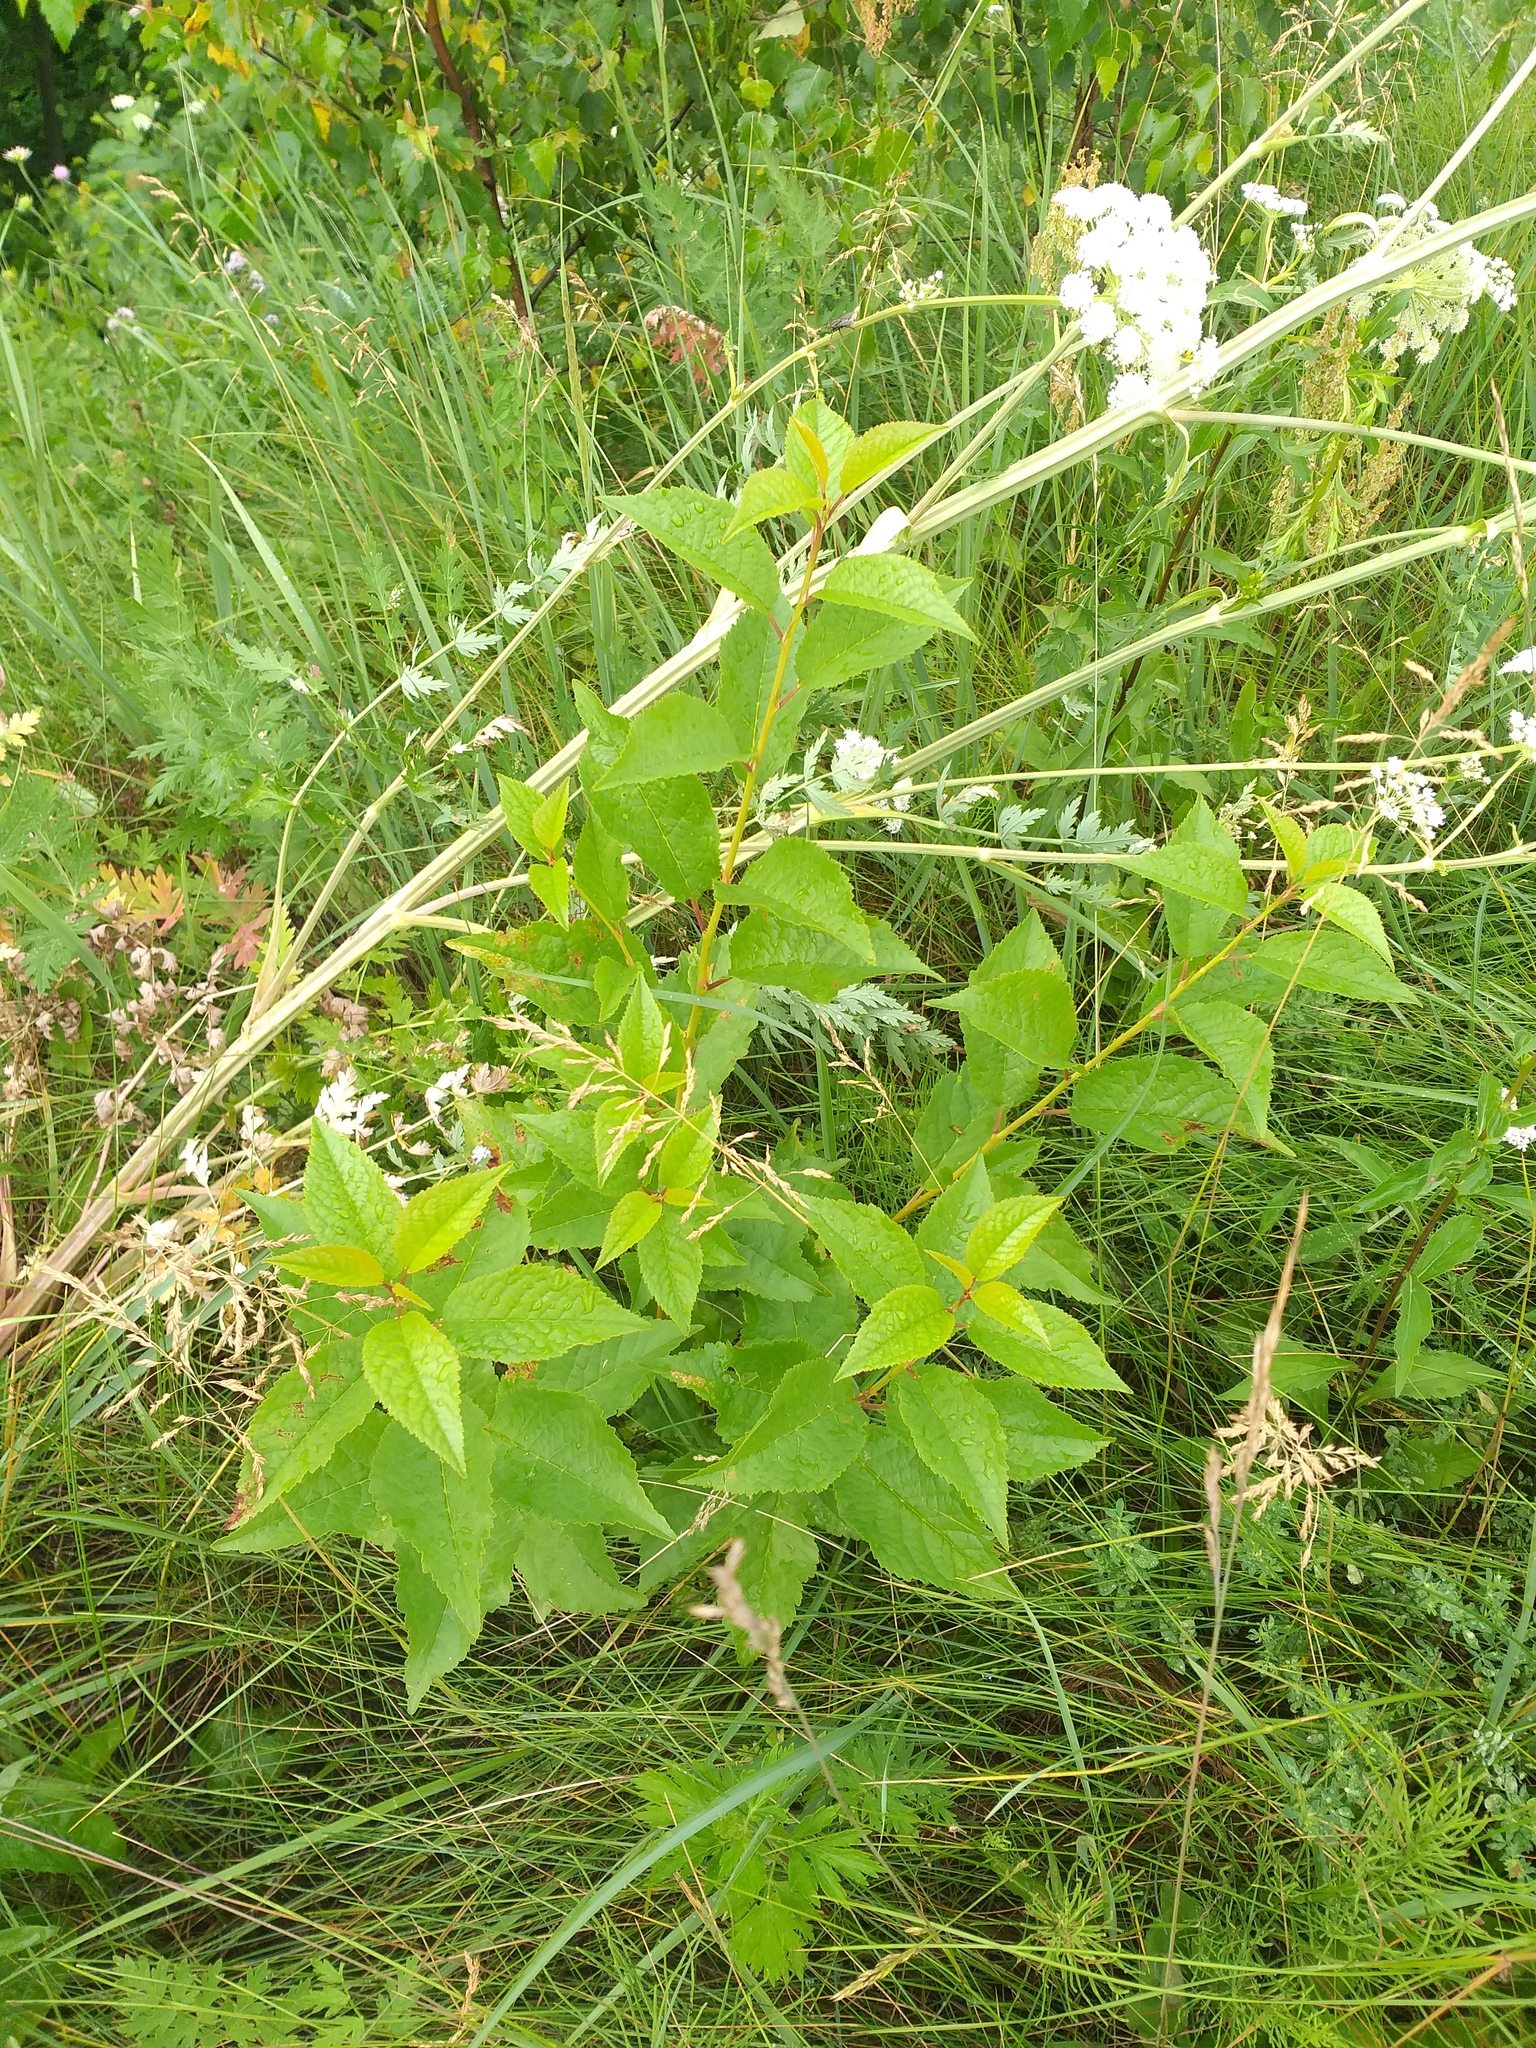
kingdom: Plantae
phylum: Tracheophyta
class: Magnoliopsida
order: Rosales
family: Rosaceae
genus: Prunus
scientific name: Prunus cerasus
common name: Morello cherry
